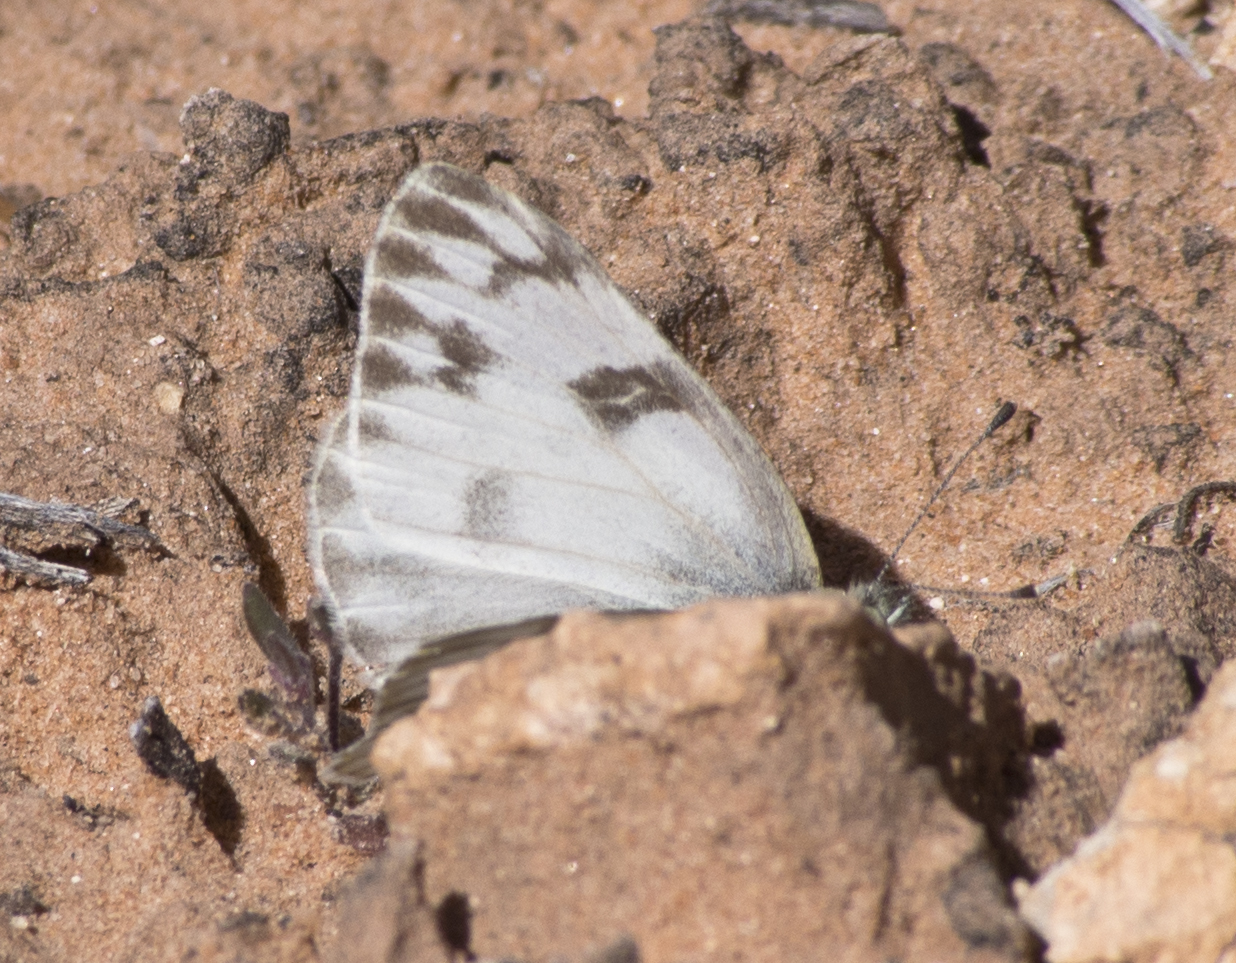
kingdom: Animalia
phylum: Arthropoda
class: Insecta
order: Lepidoptera
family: Pieridae
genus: Pontia
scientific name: Pontia protodice
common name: Checkered white
